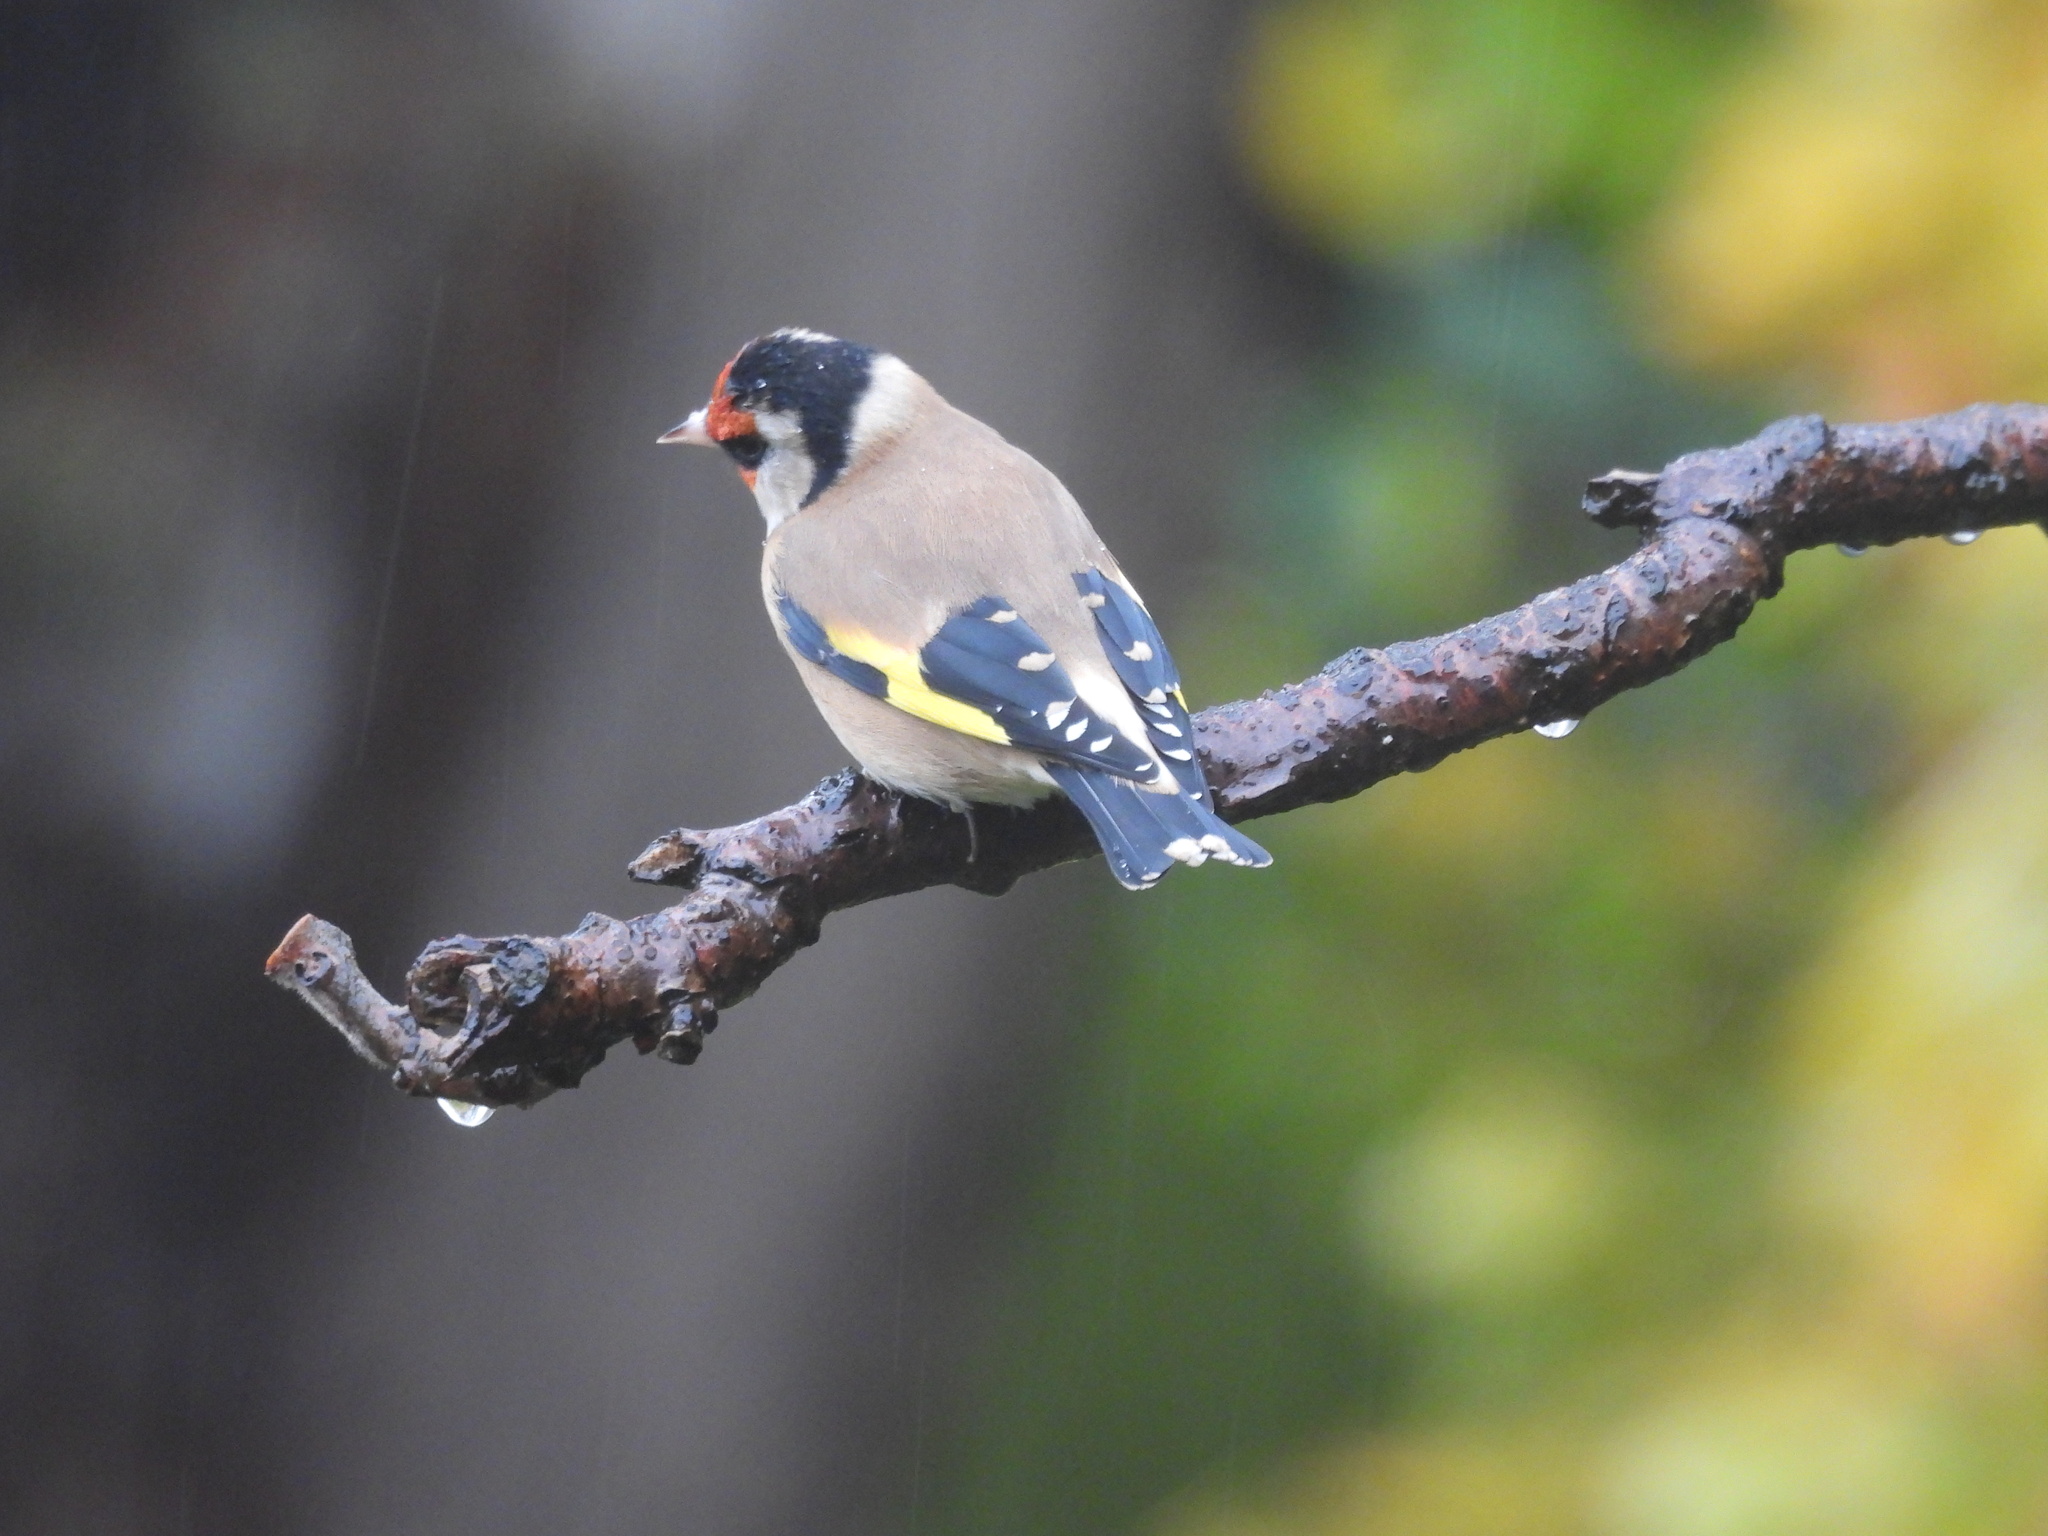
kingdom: Animalia
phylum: Chordata
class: Aves
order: Passeriformes
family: Fringillidae
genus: Carduelis
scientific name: Carduelis carduelis
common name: European goldfinch
